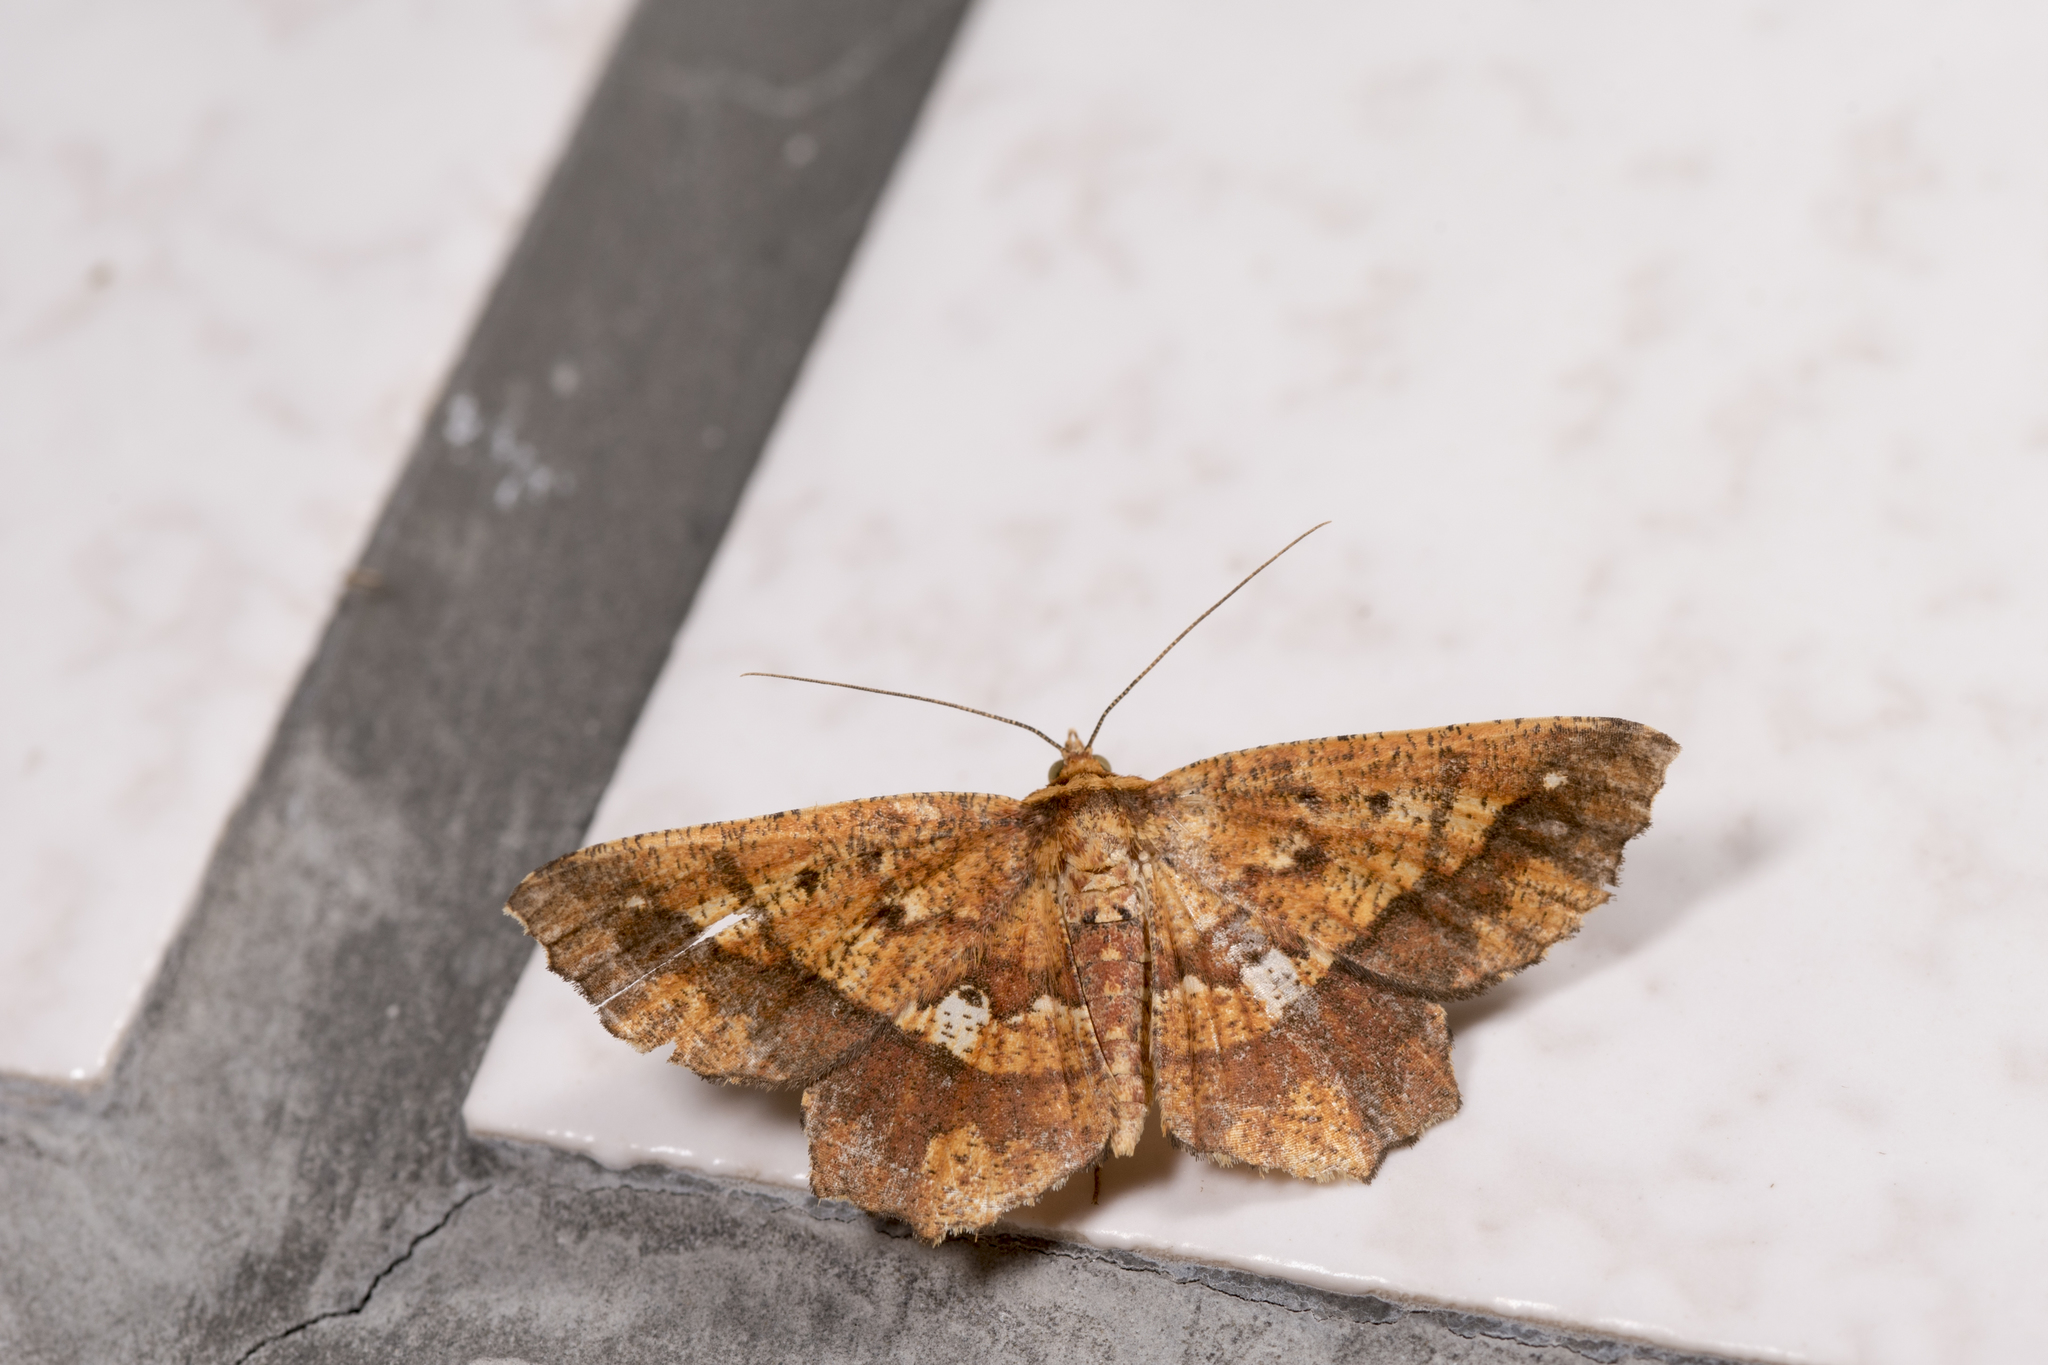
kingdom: Animalia
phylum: Arthropoda
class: Insecta
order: Lepidoptera
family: Geometridae
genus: Entomopteryx
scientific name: Entomopteryx combusta
